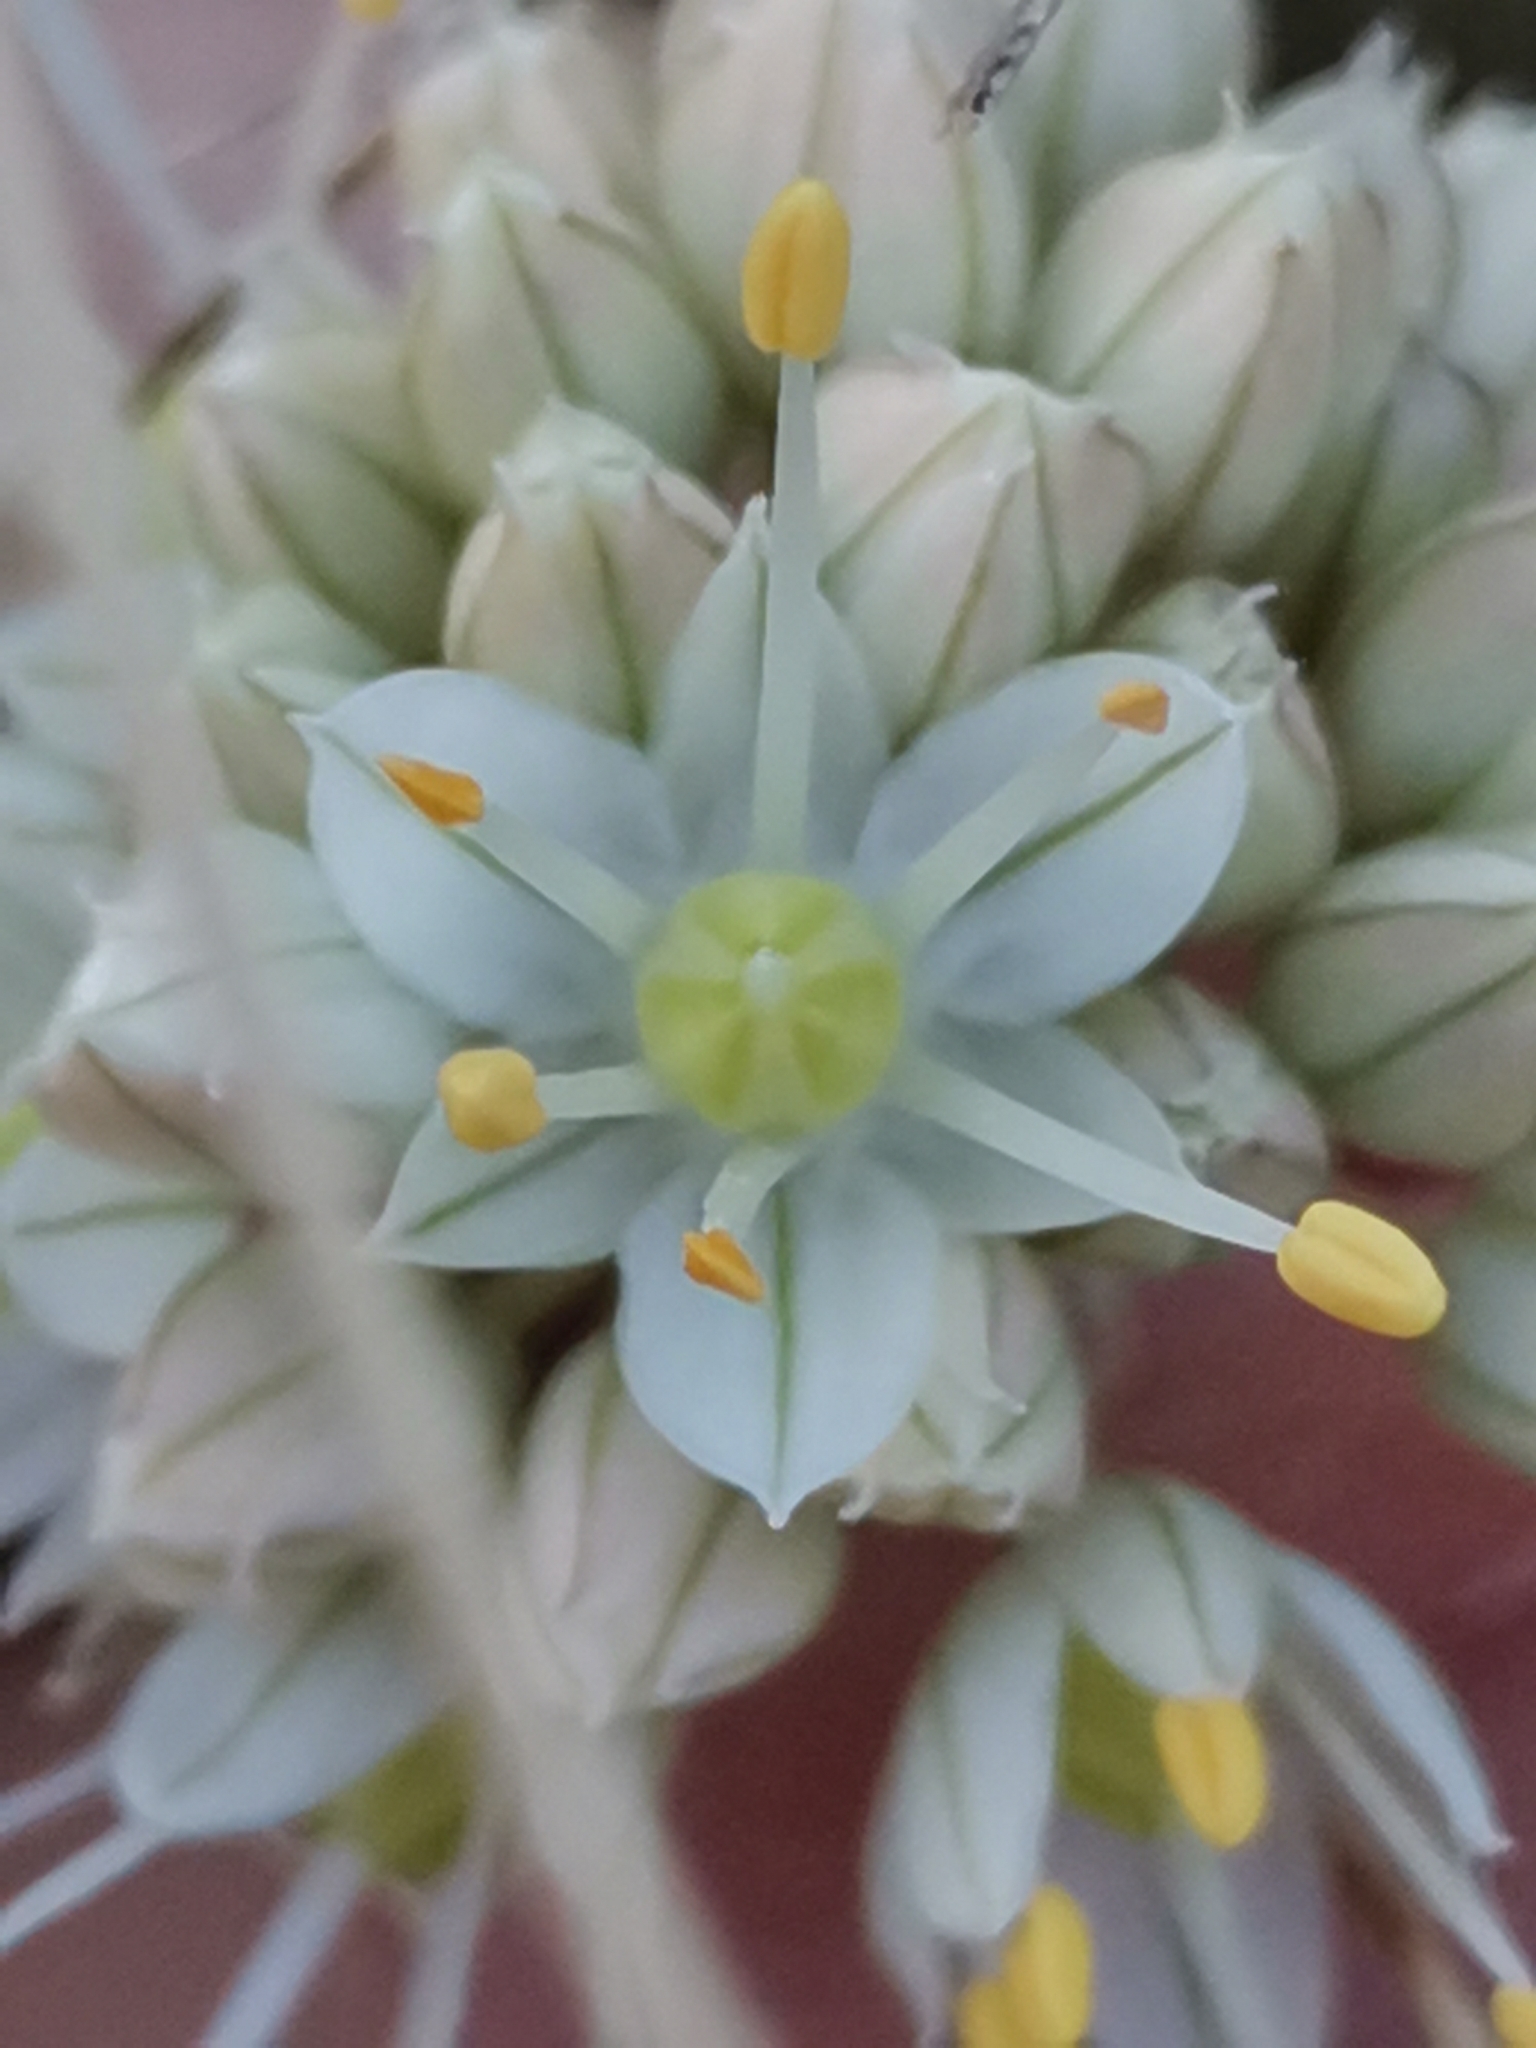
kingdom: Plantae
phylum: Tracheophyta
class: Liliopsida
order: Asparagales
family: Amaryllidaceae
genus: Allium
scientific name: Allium horvatii
